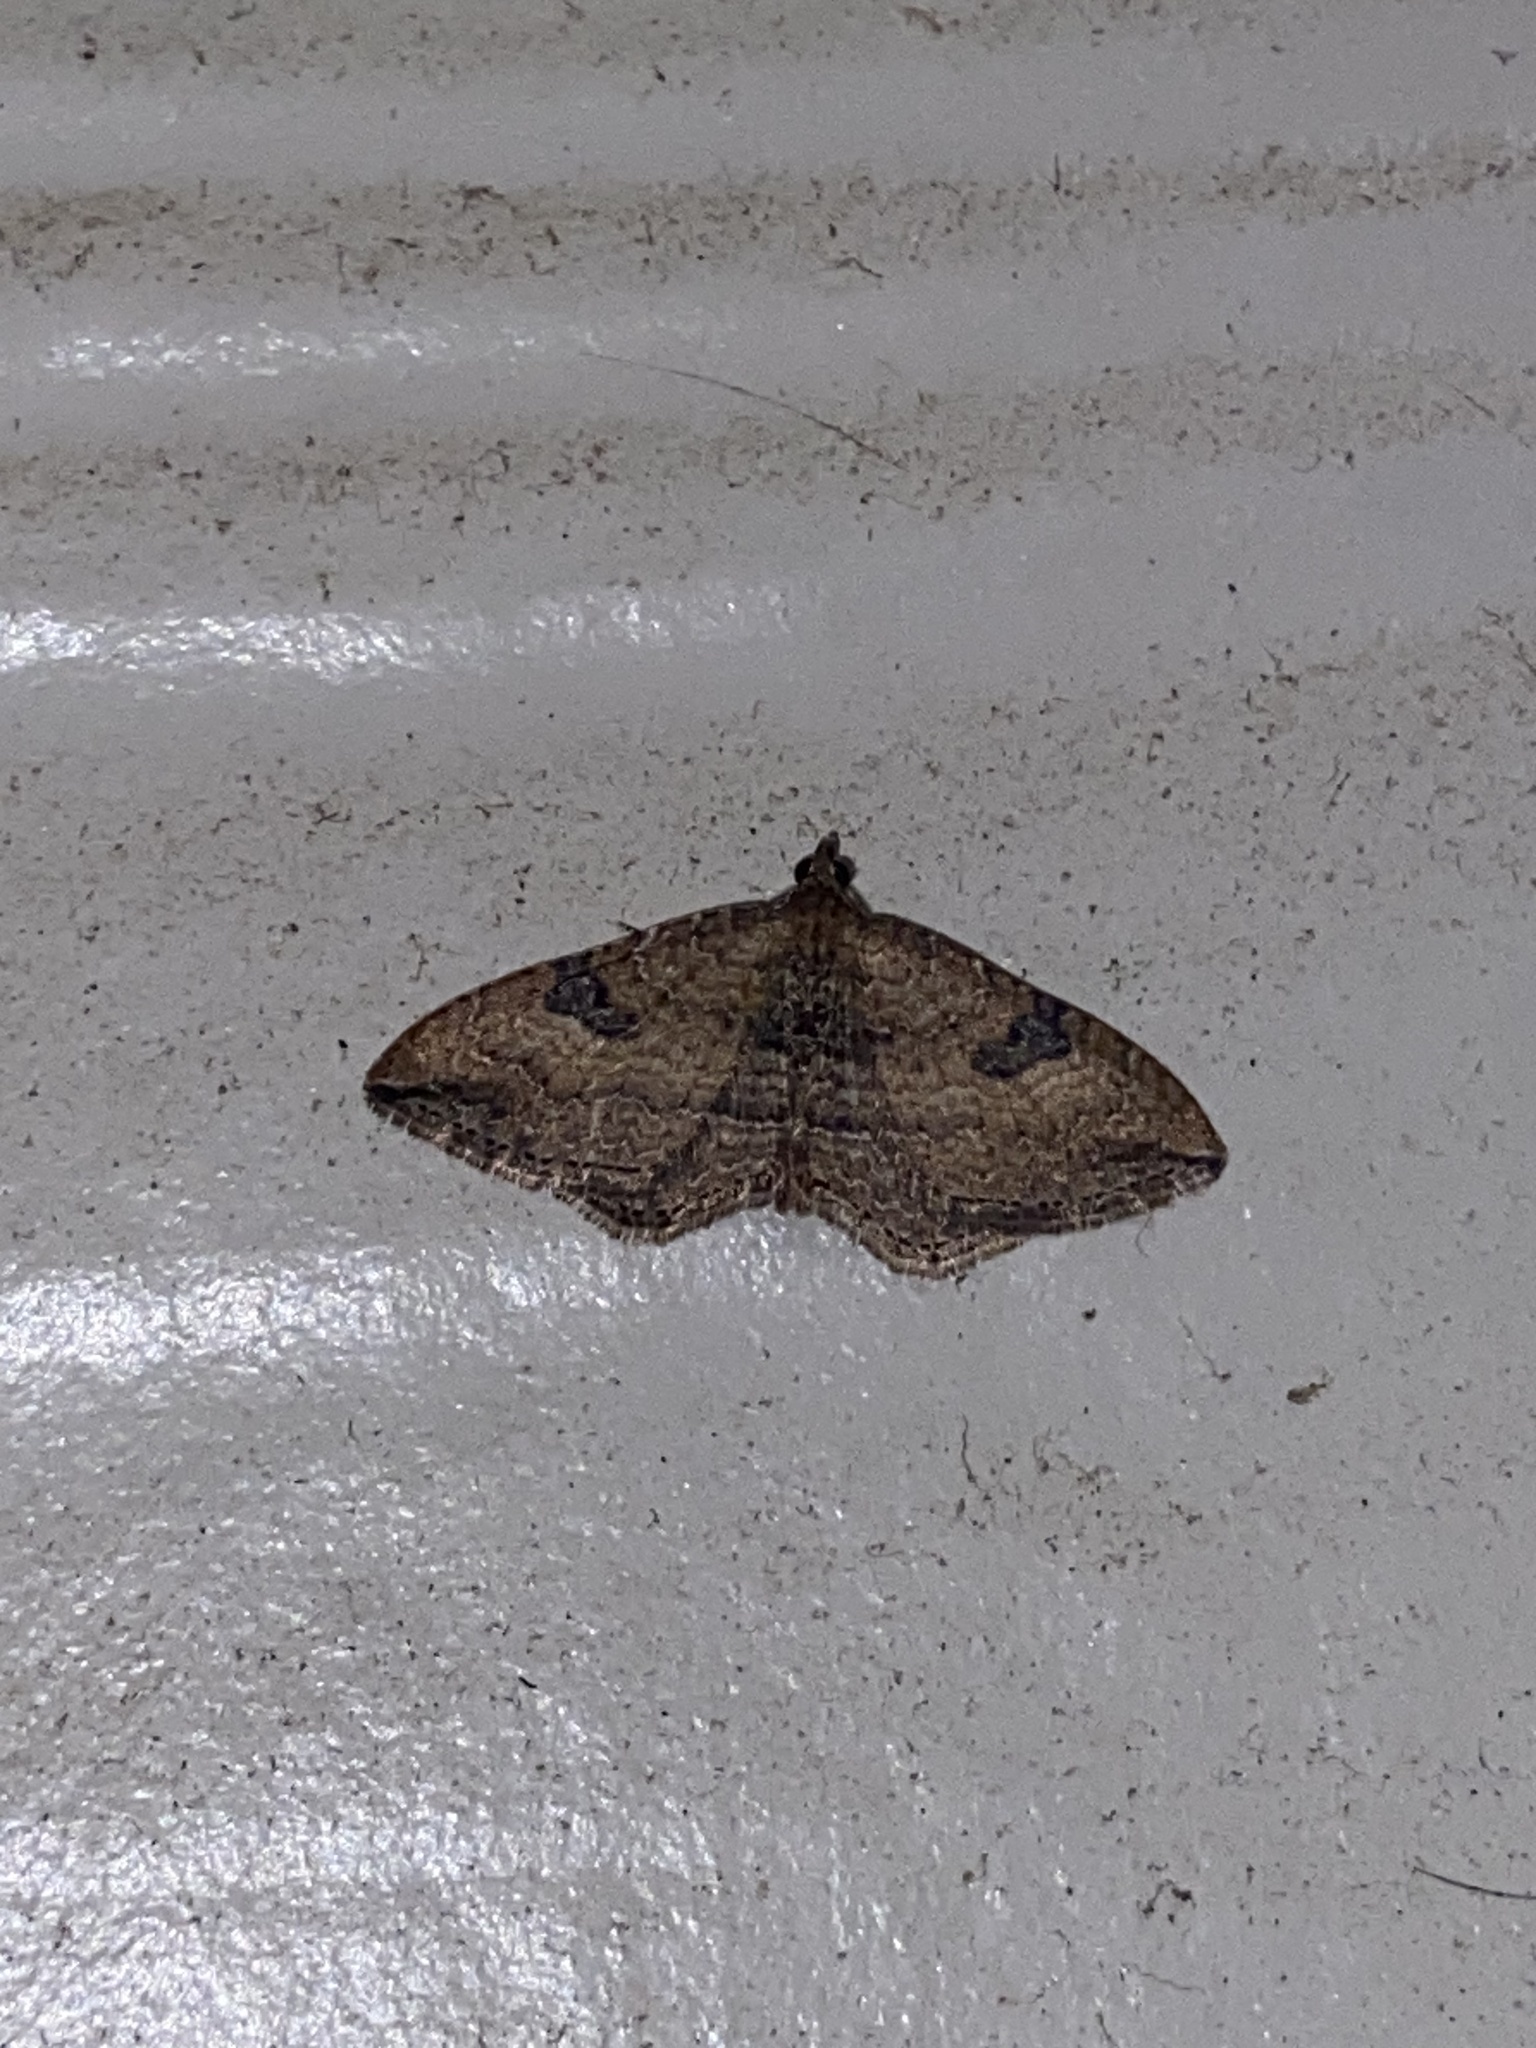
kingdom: Animalia
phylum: Arthropoda
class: Insecta
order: Lepidoptera
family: Geometridae
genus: Orthonama
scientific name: Orthonama obstipata
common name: The gem
